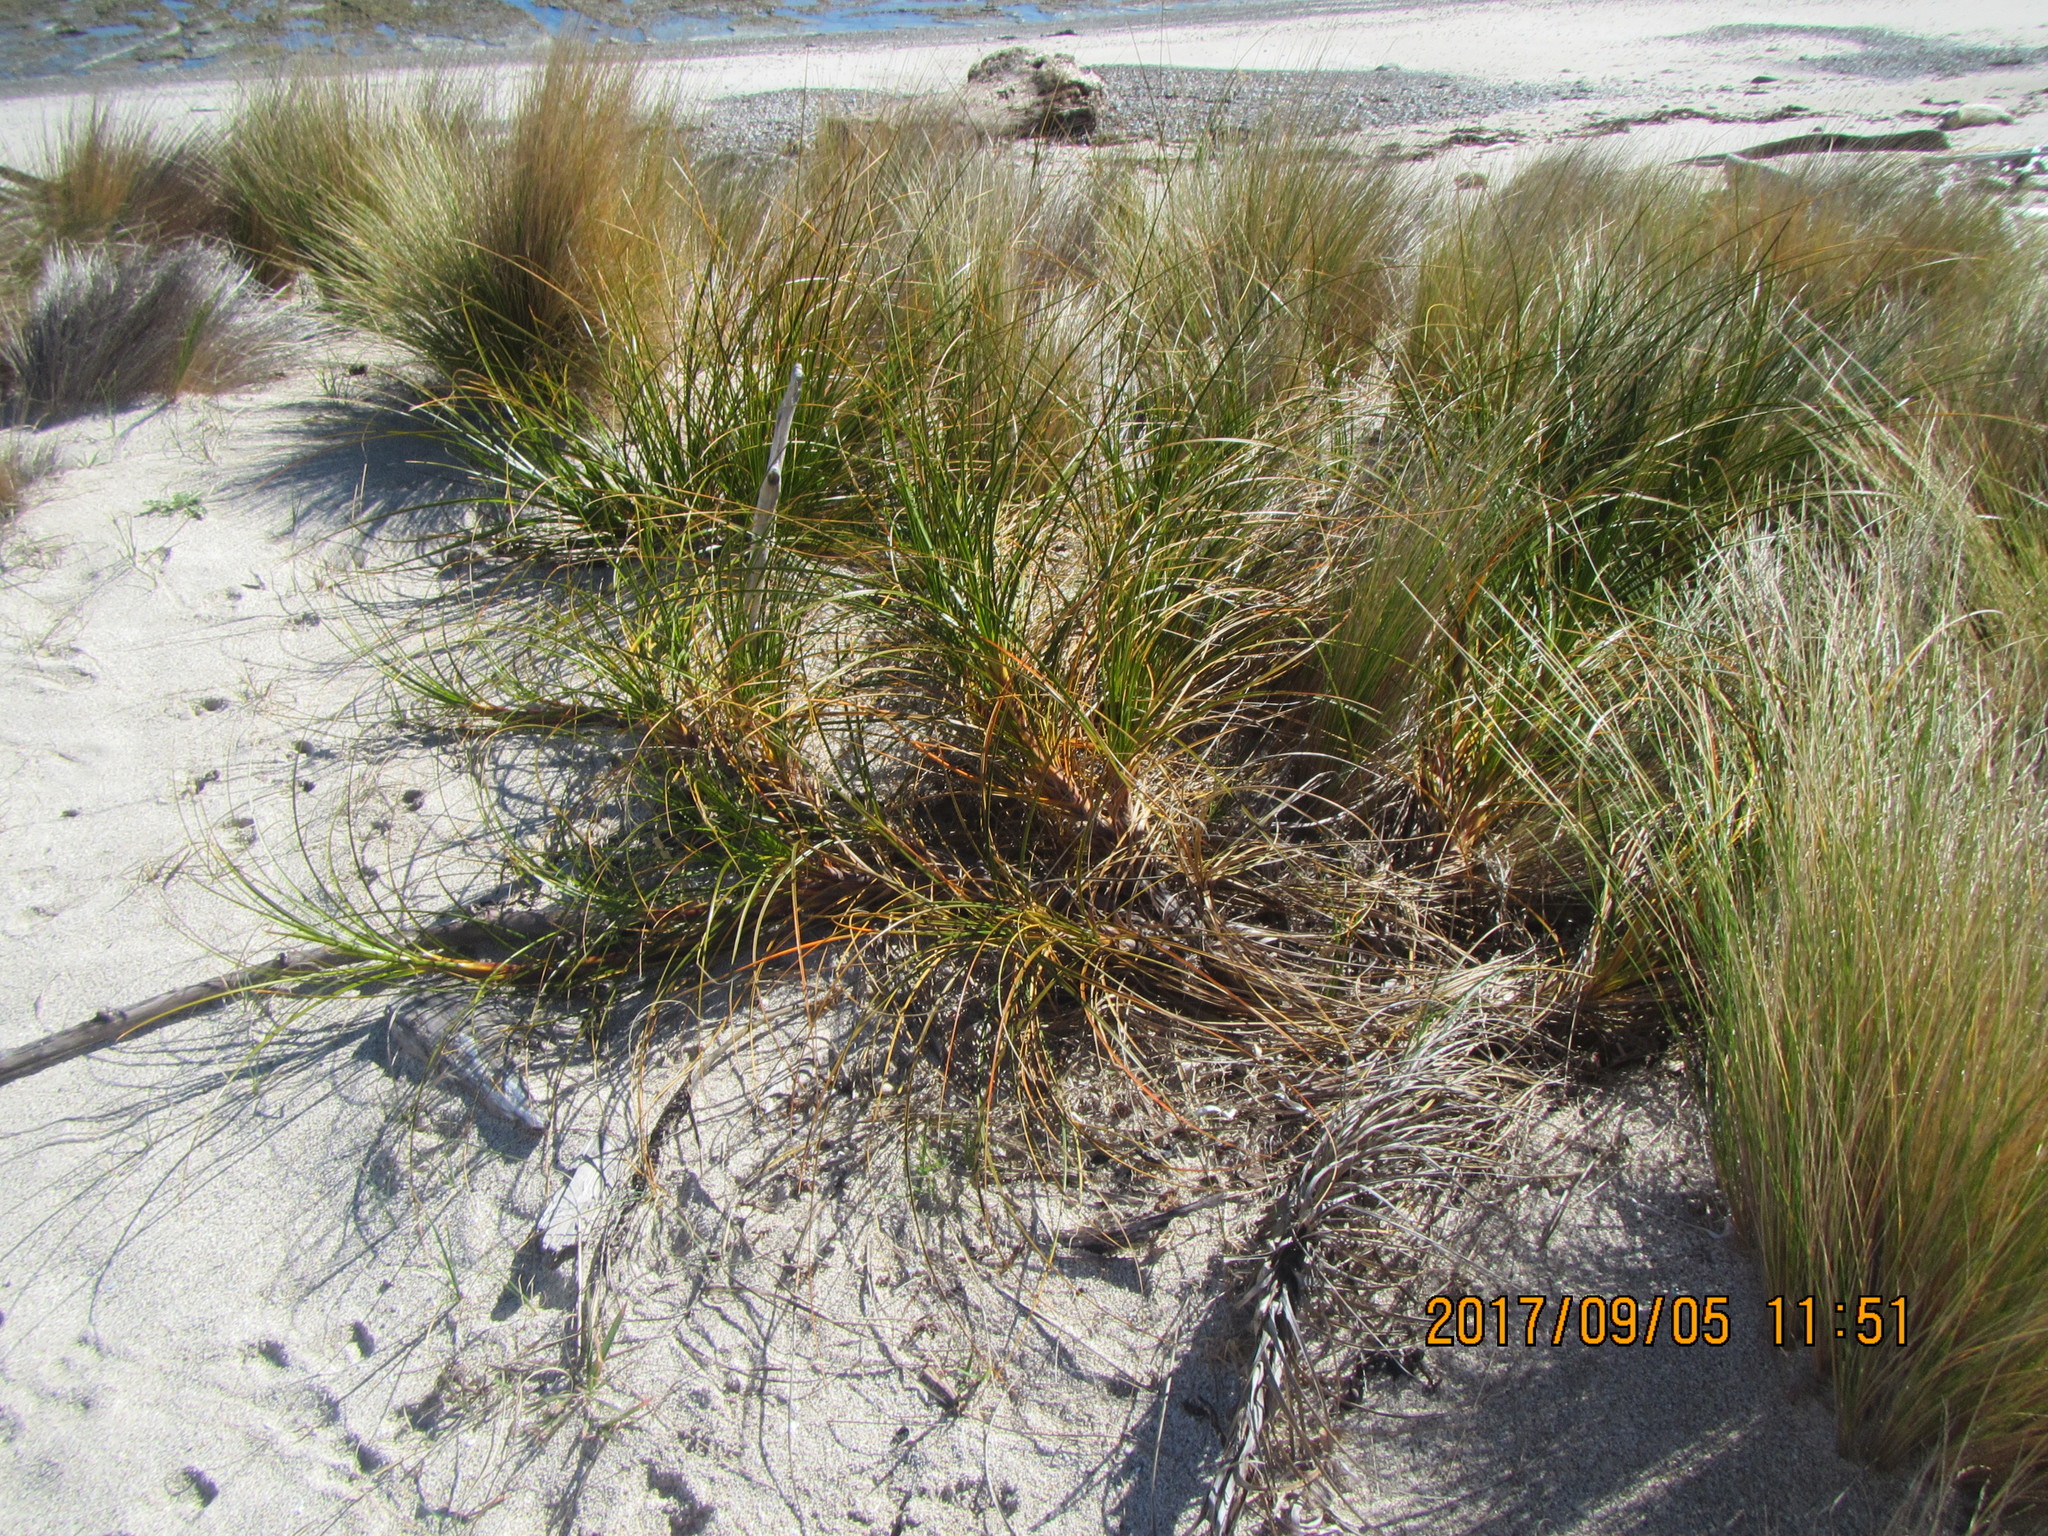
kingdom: Plantae
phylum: Tracheophyta
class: Liliopsida
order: Poales
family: Cyperaceae
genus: Ficinia
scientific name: Ficinia spiralis
